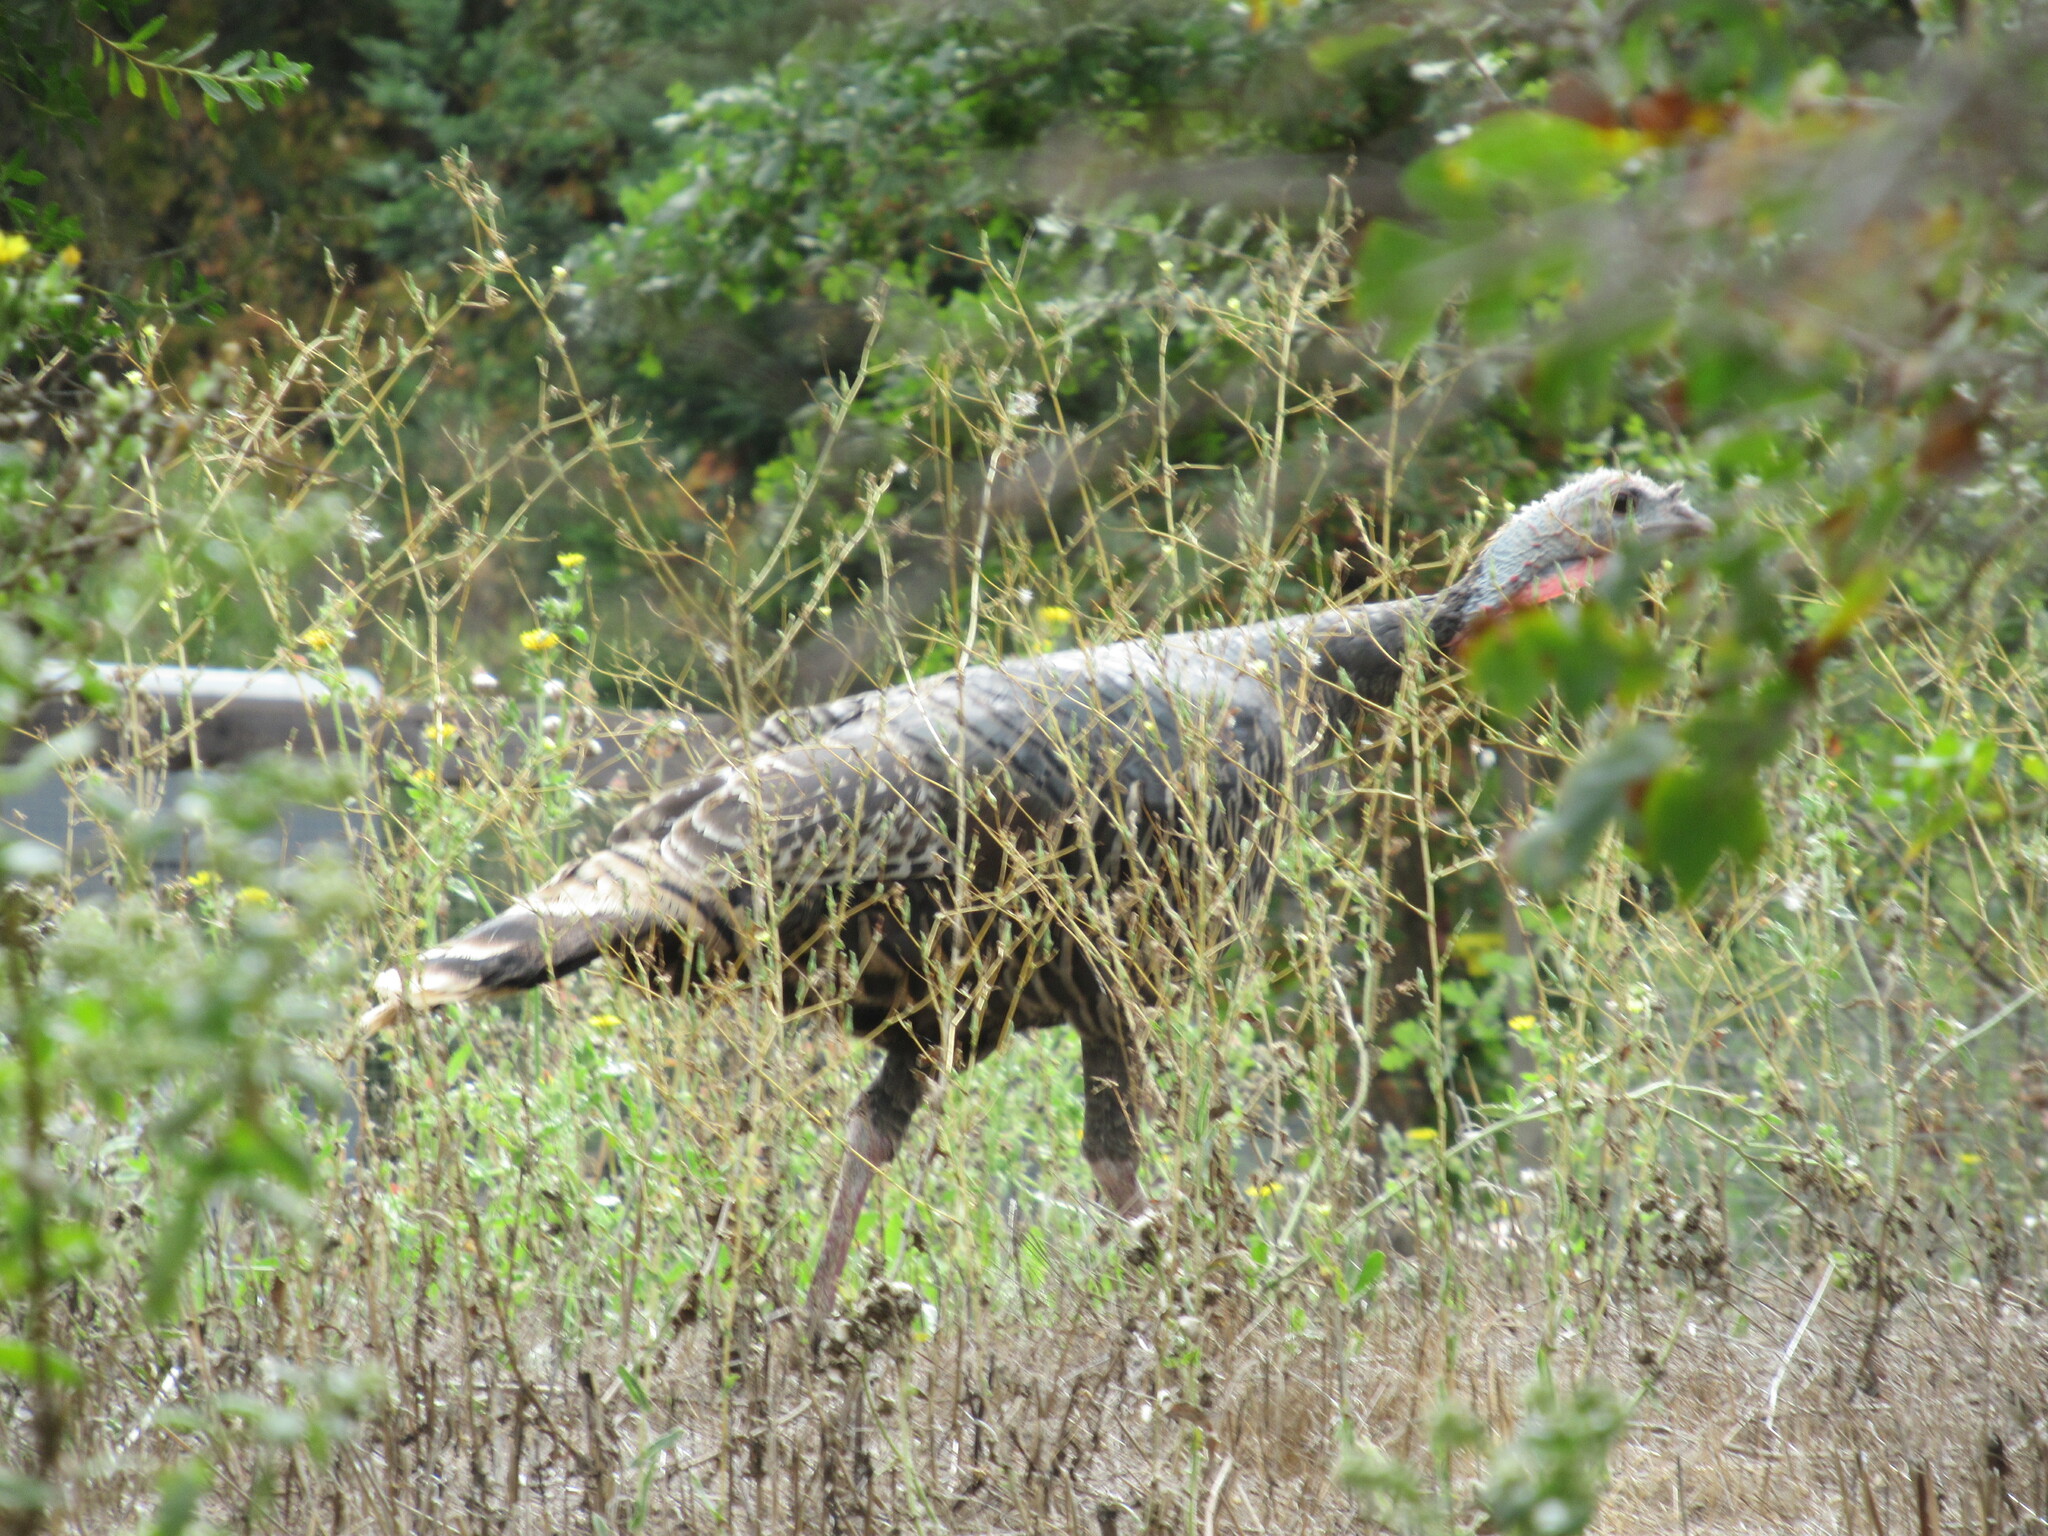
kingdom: Animalia
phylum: Chordata
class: Aves
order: Galliformes
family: Phasianidae
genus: Meleagris
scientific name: Meleagris gallopavo
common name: Wild turkey
